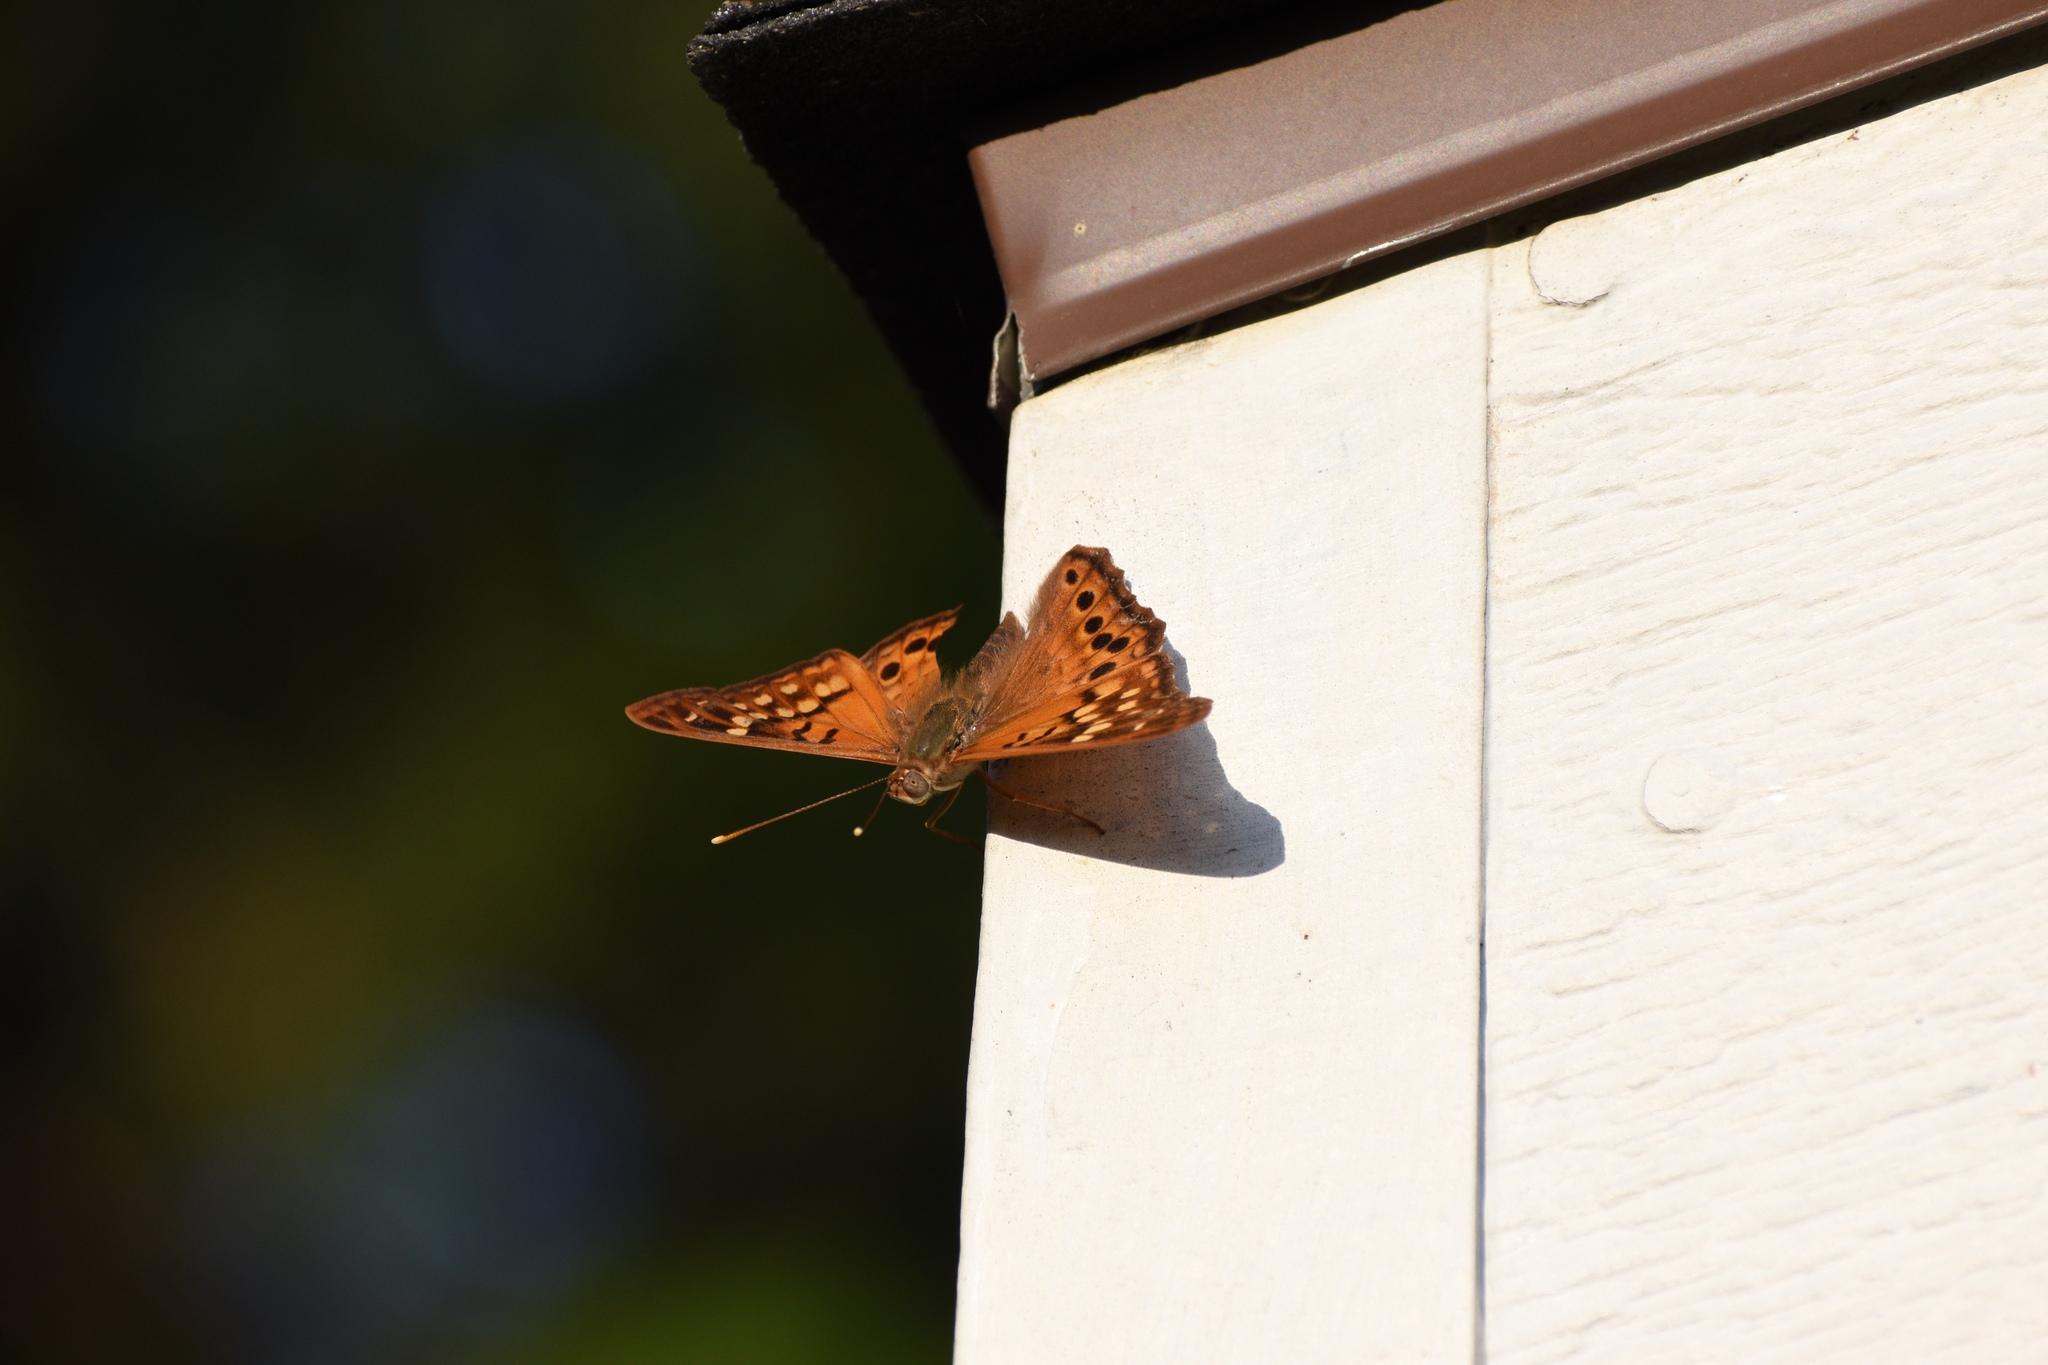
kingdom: Animalia
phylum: Arthropoda
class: Insecta
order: Lepidoptera
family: Nymphalidae
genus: Asterocampa
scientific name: Asterocampa clyton
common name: Tawny emperor
